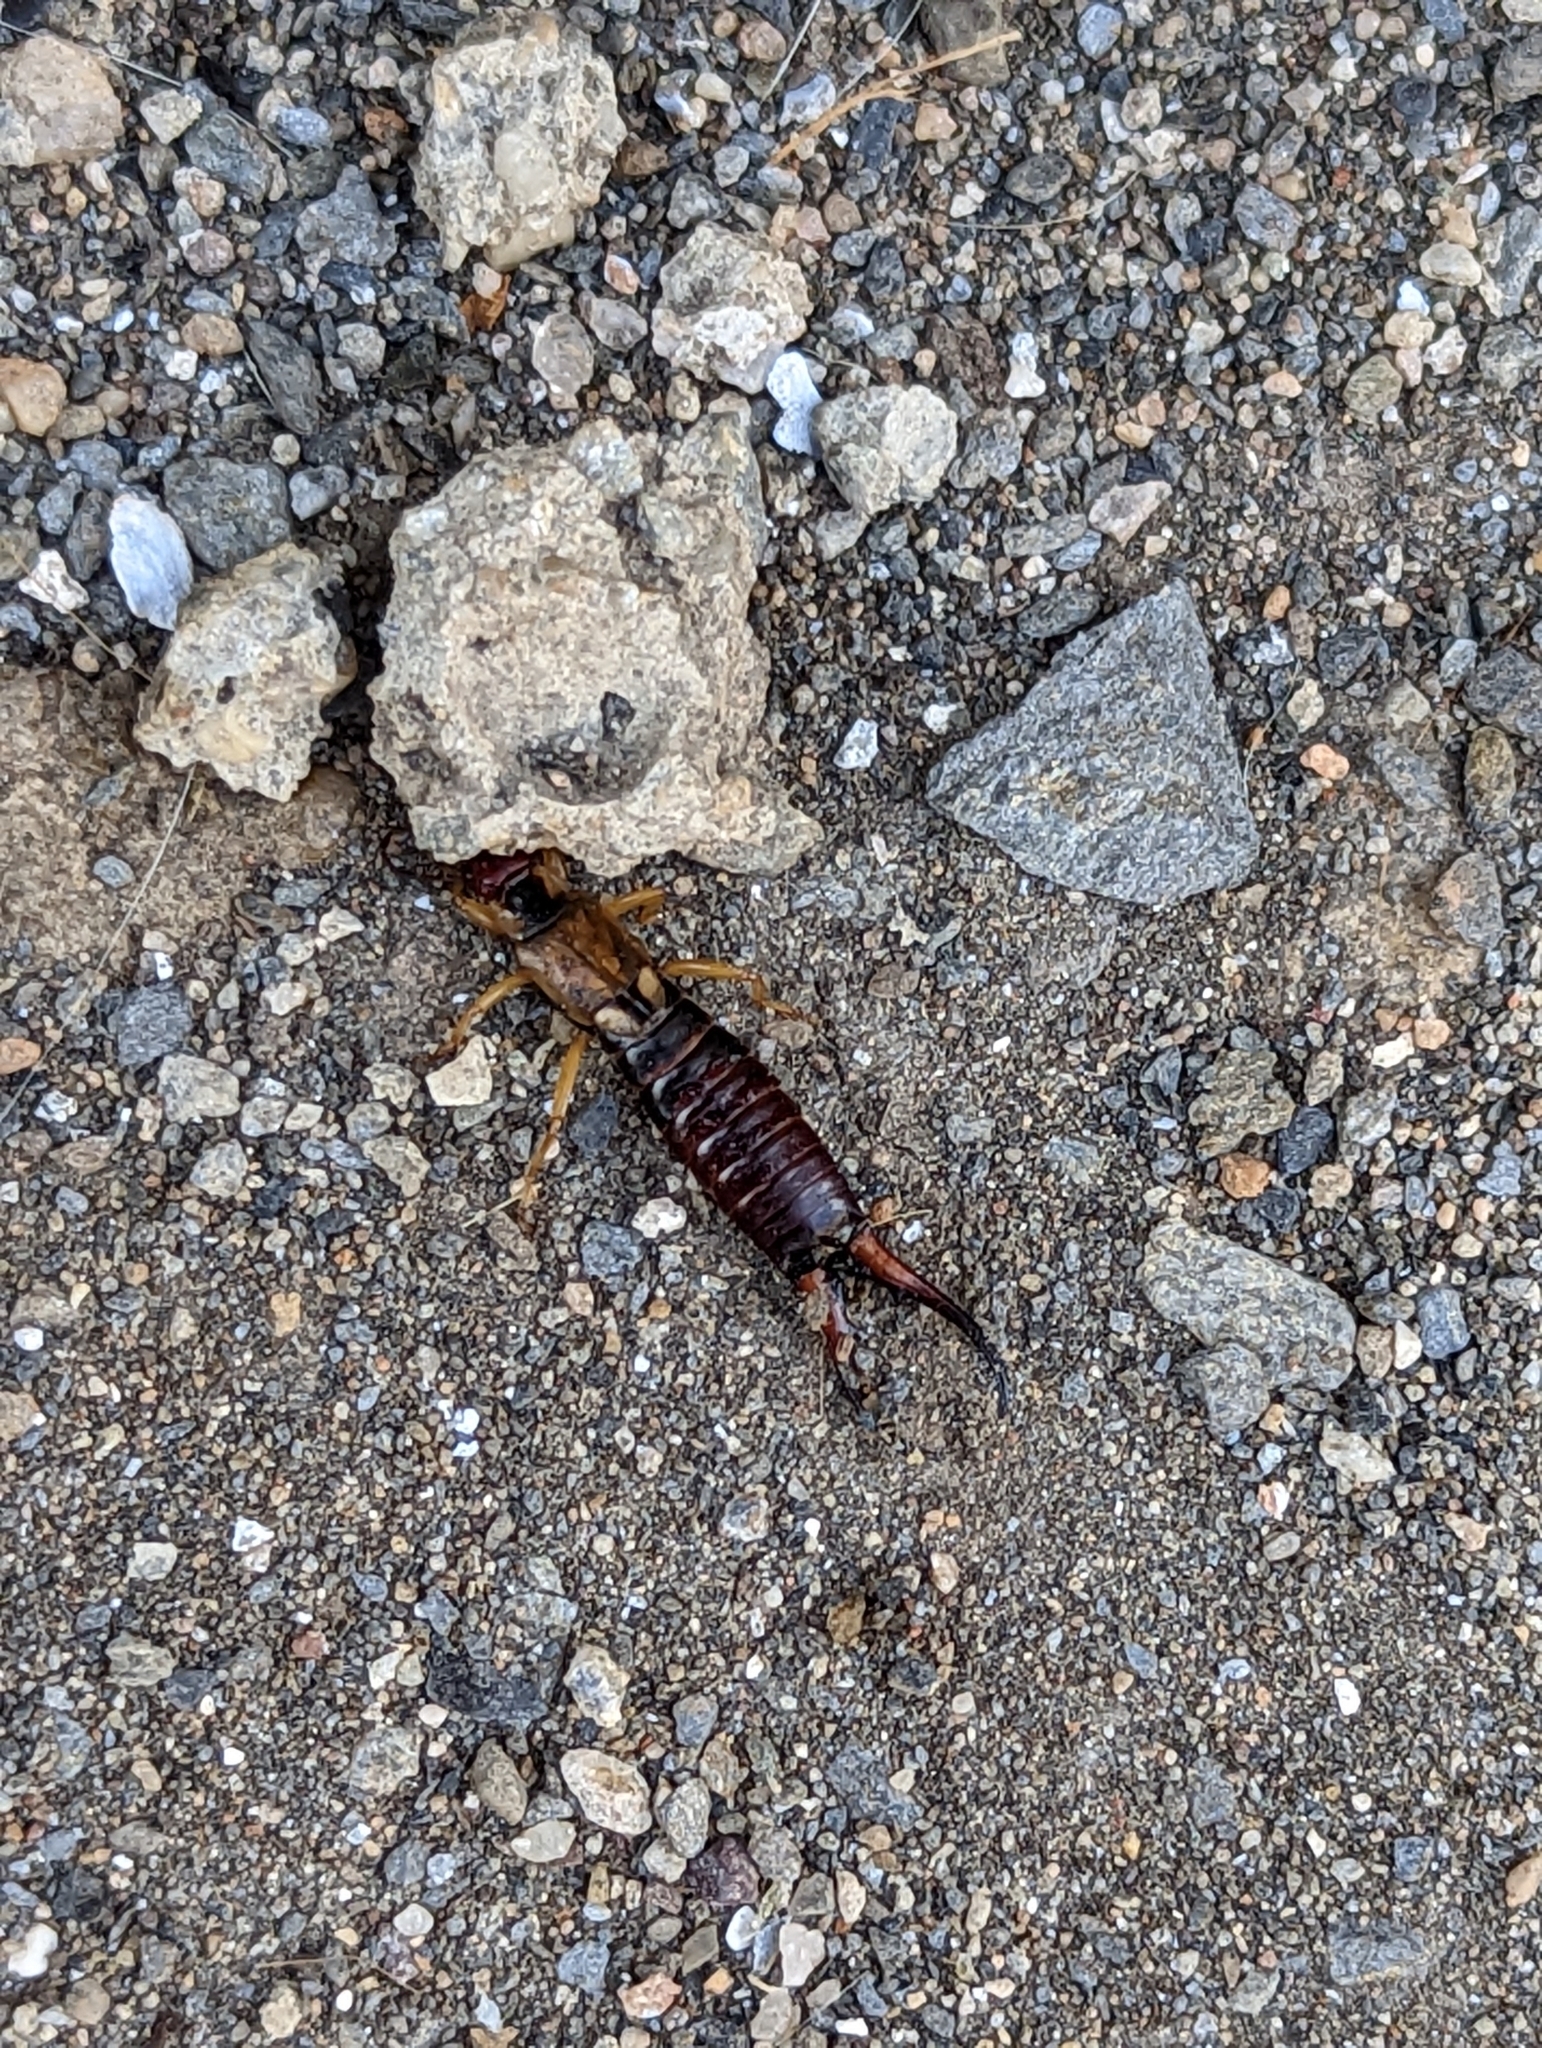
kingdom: Animalia
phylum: Arthropoda
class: Insecta
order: Dermaptera
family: Forficulidae
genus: Forficula
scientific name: Forficula
